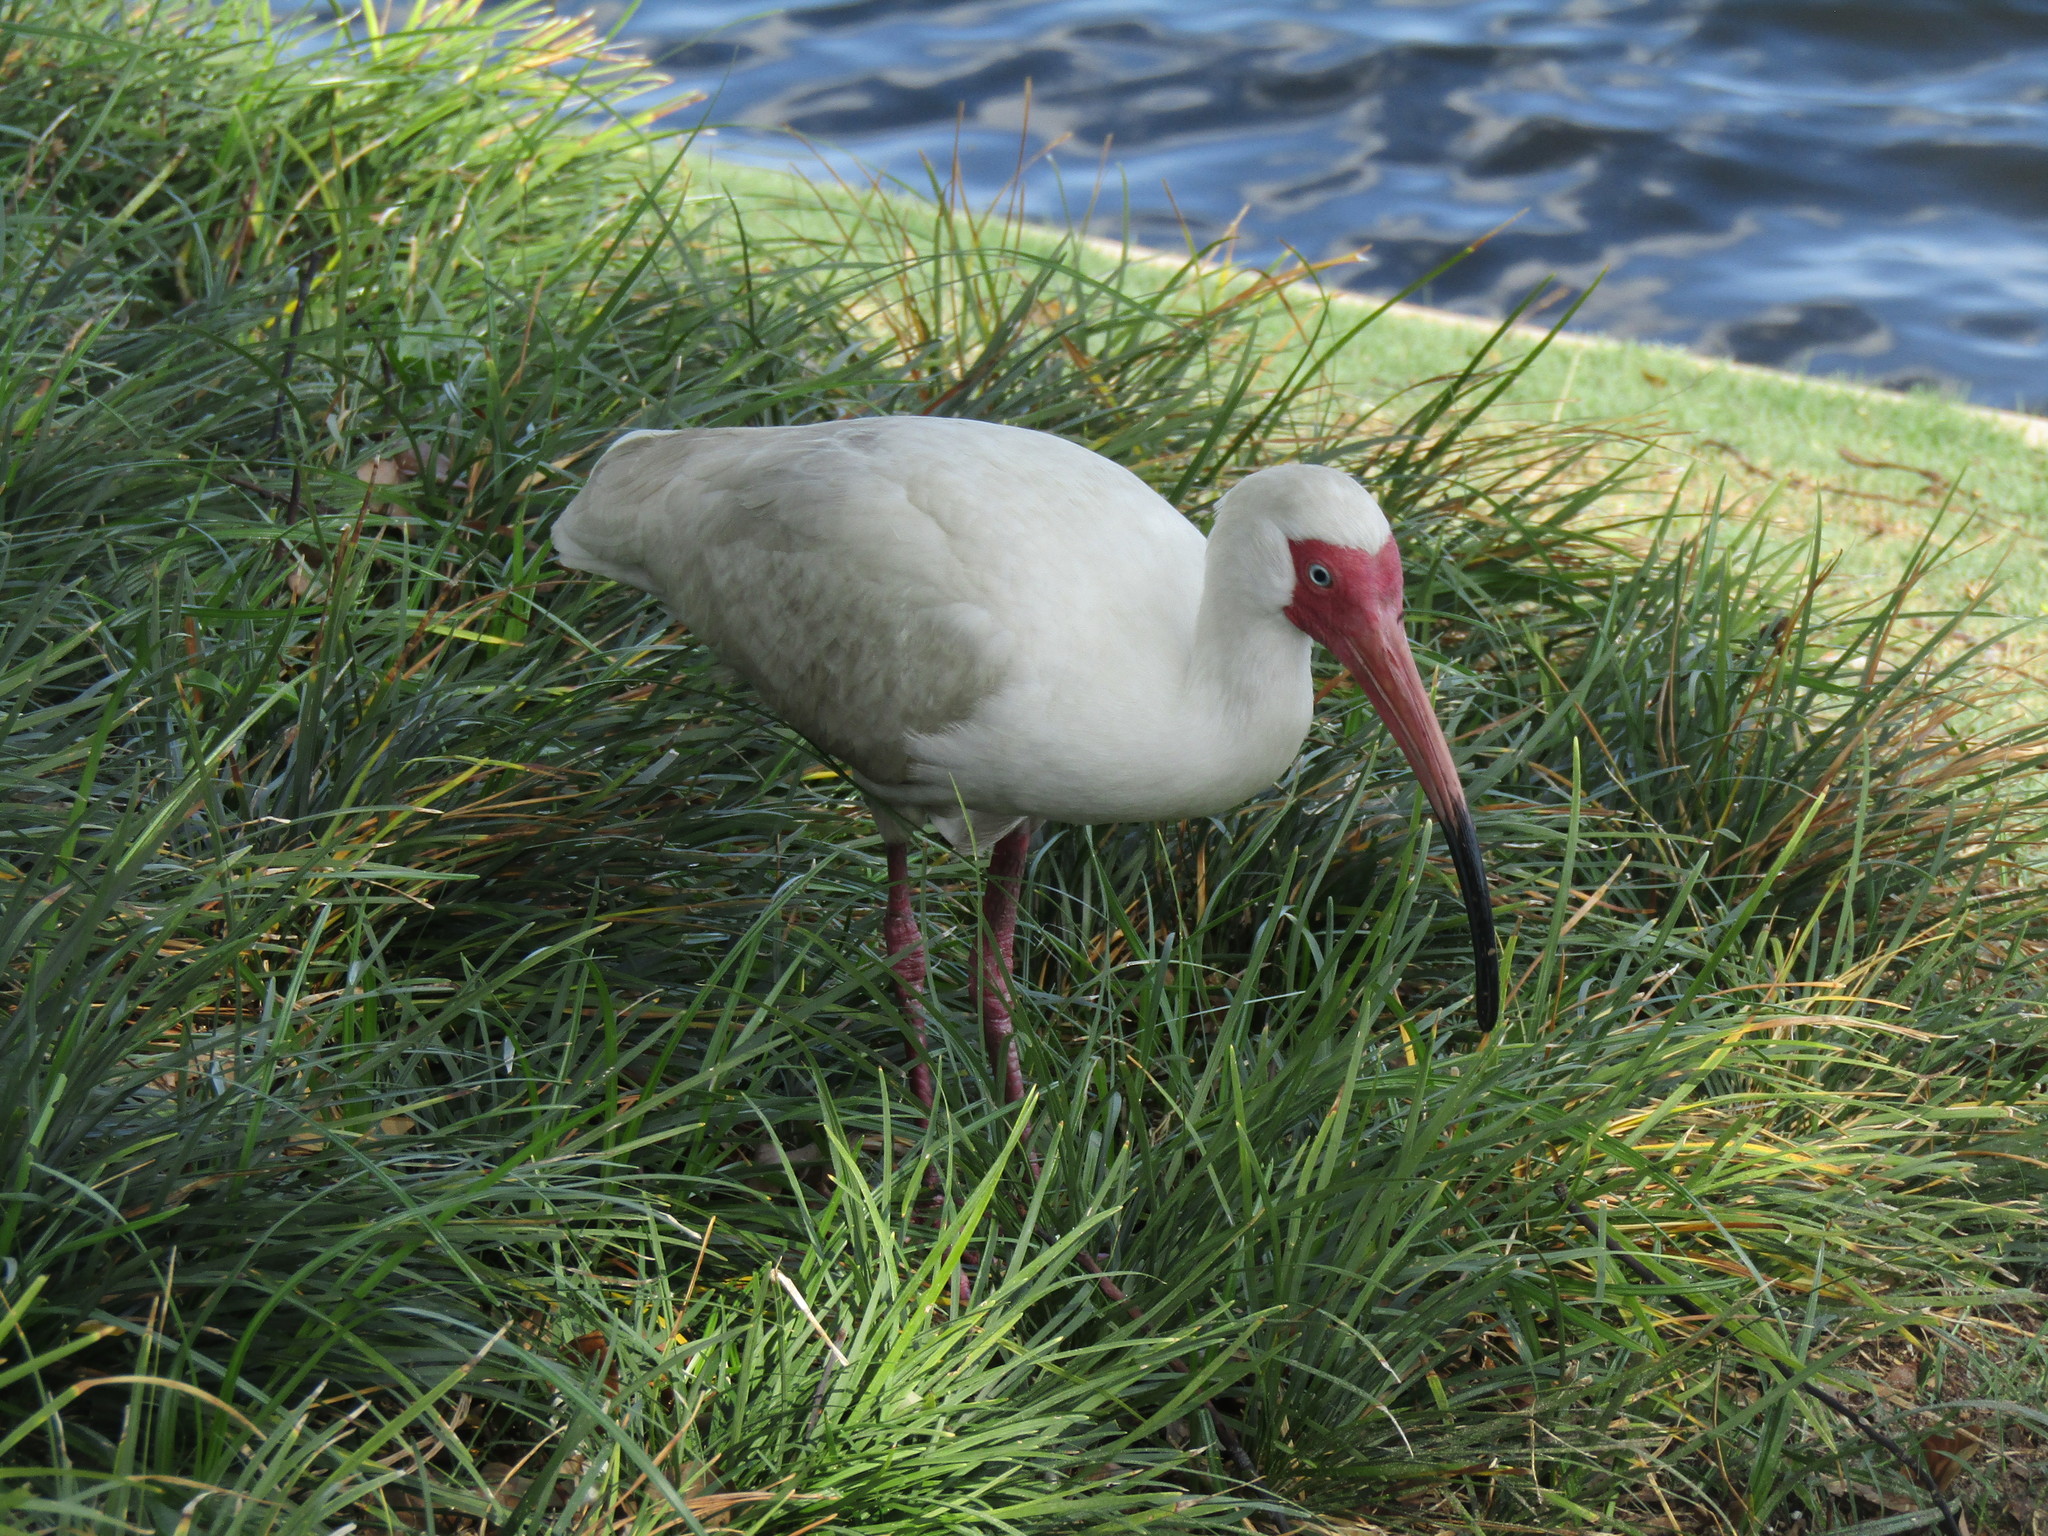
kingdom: Animalia
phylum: Chordata
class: Aves
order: Pelecaniformes
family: Threskiornithidae
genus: Eudocimus
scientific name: Eudocimus albus
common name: White ibis
